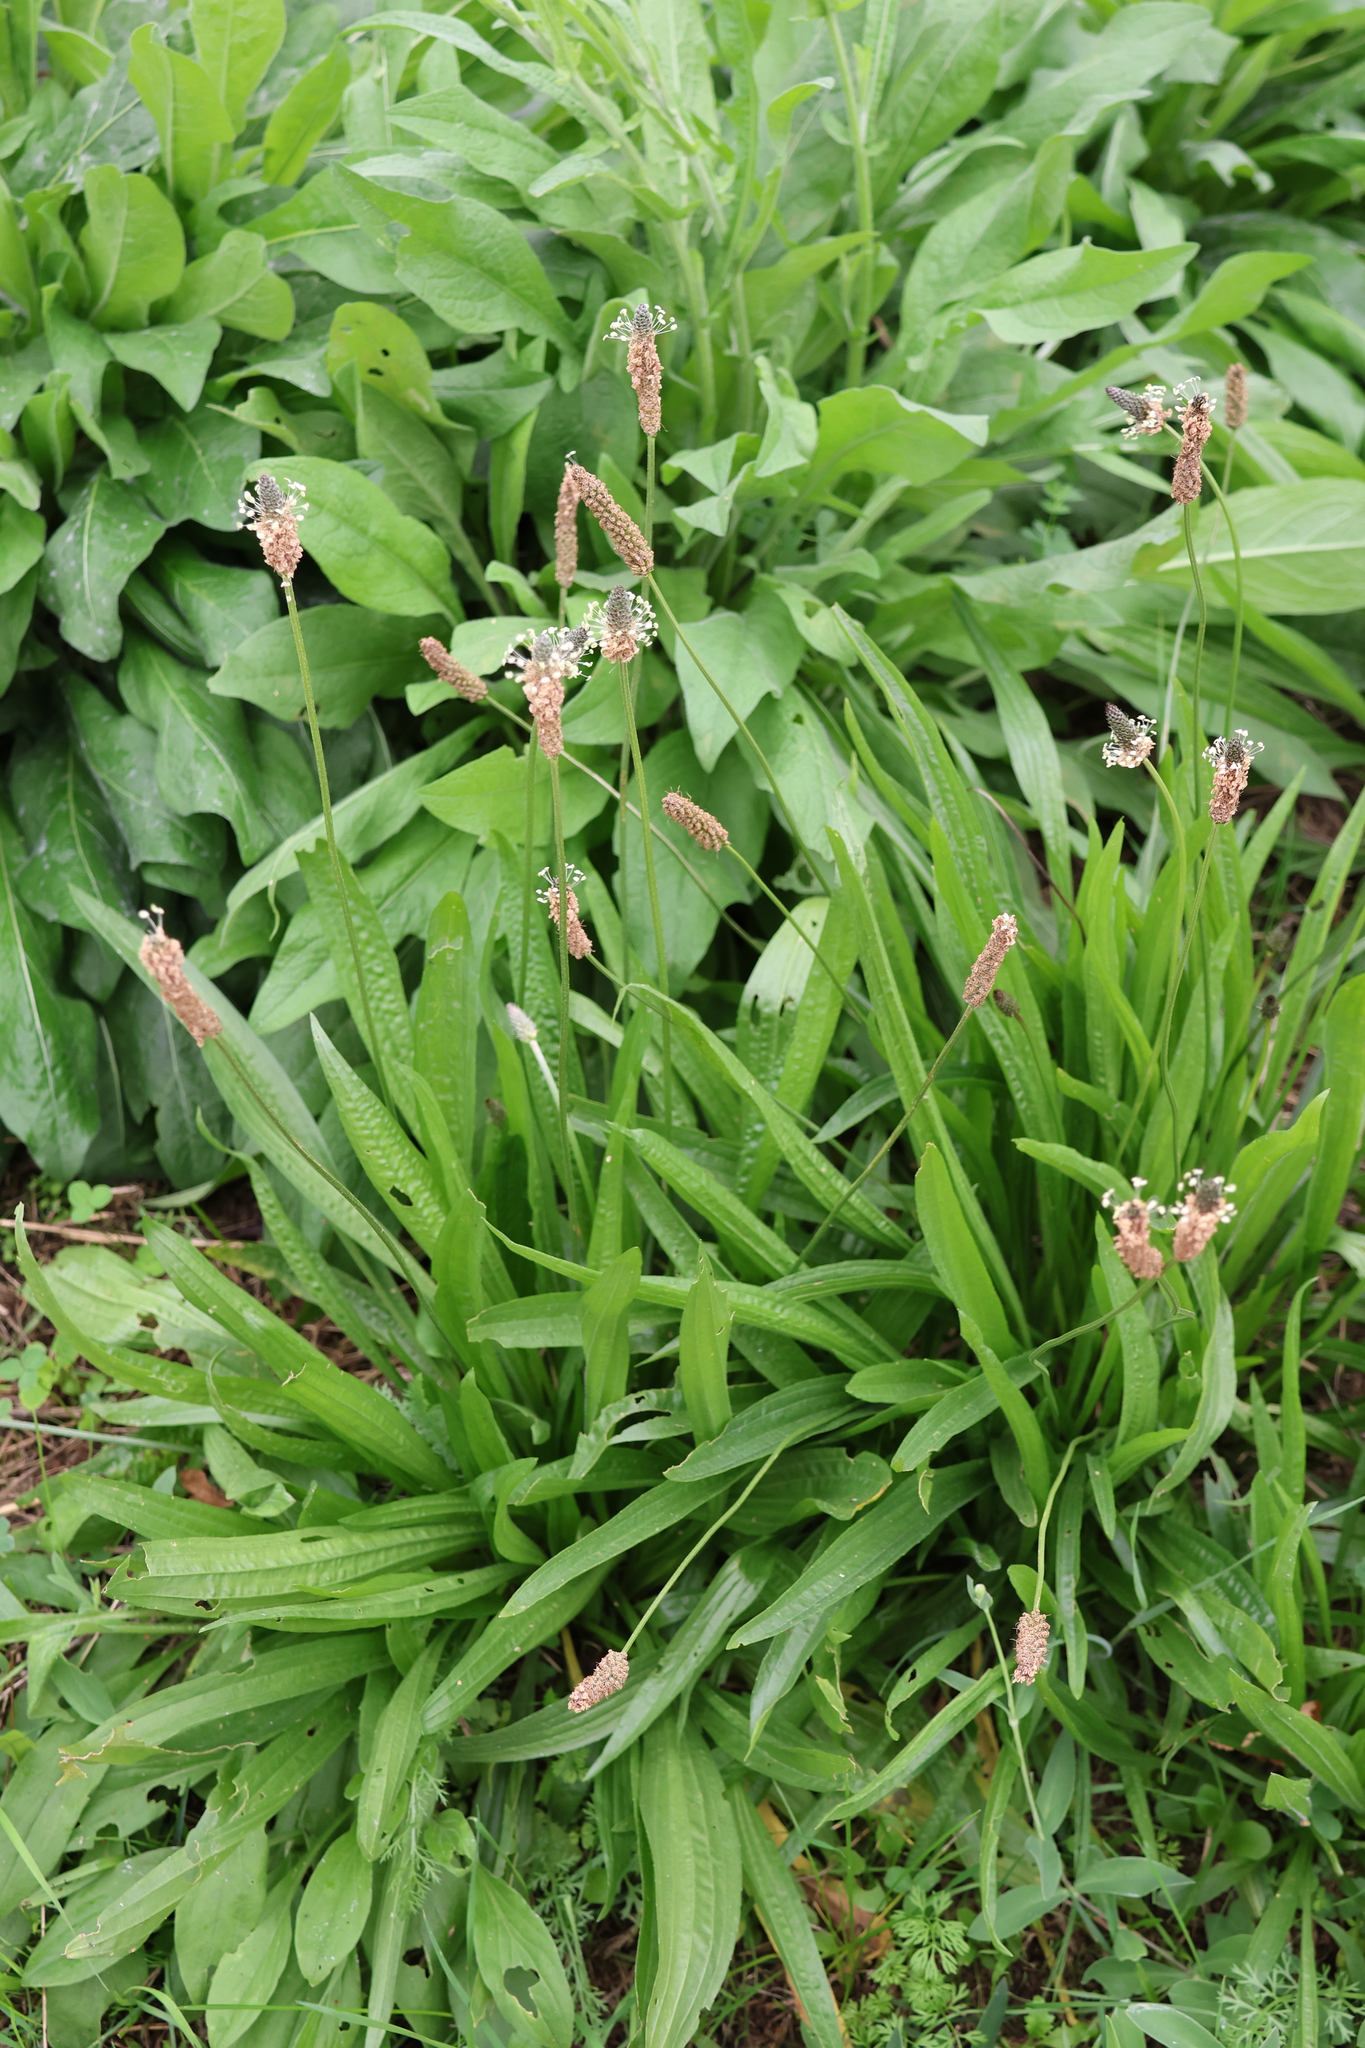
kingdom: Plantae
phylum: Tracheophyta
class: Magnoliopsida
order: Lamiales
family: Plantaginaceae
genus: Plantago
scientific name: Plantago lanceolata
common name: Ribwort plantain
